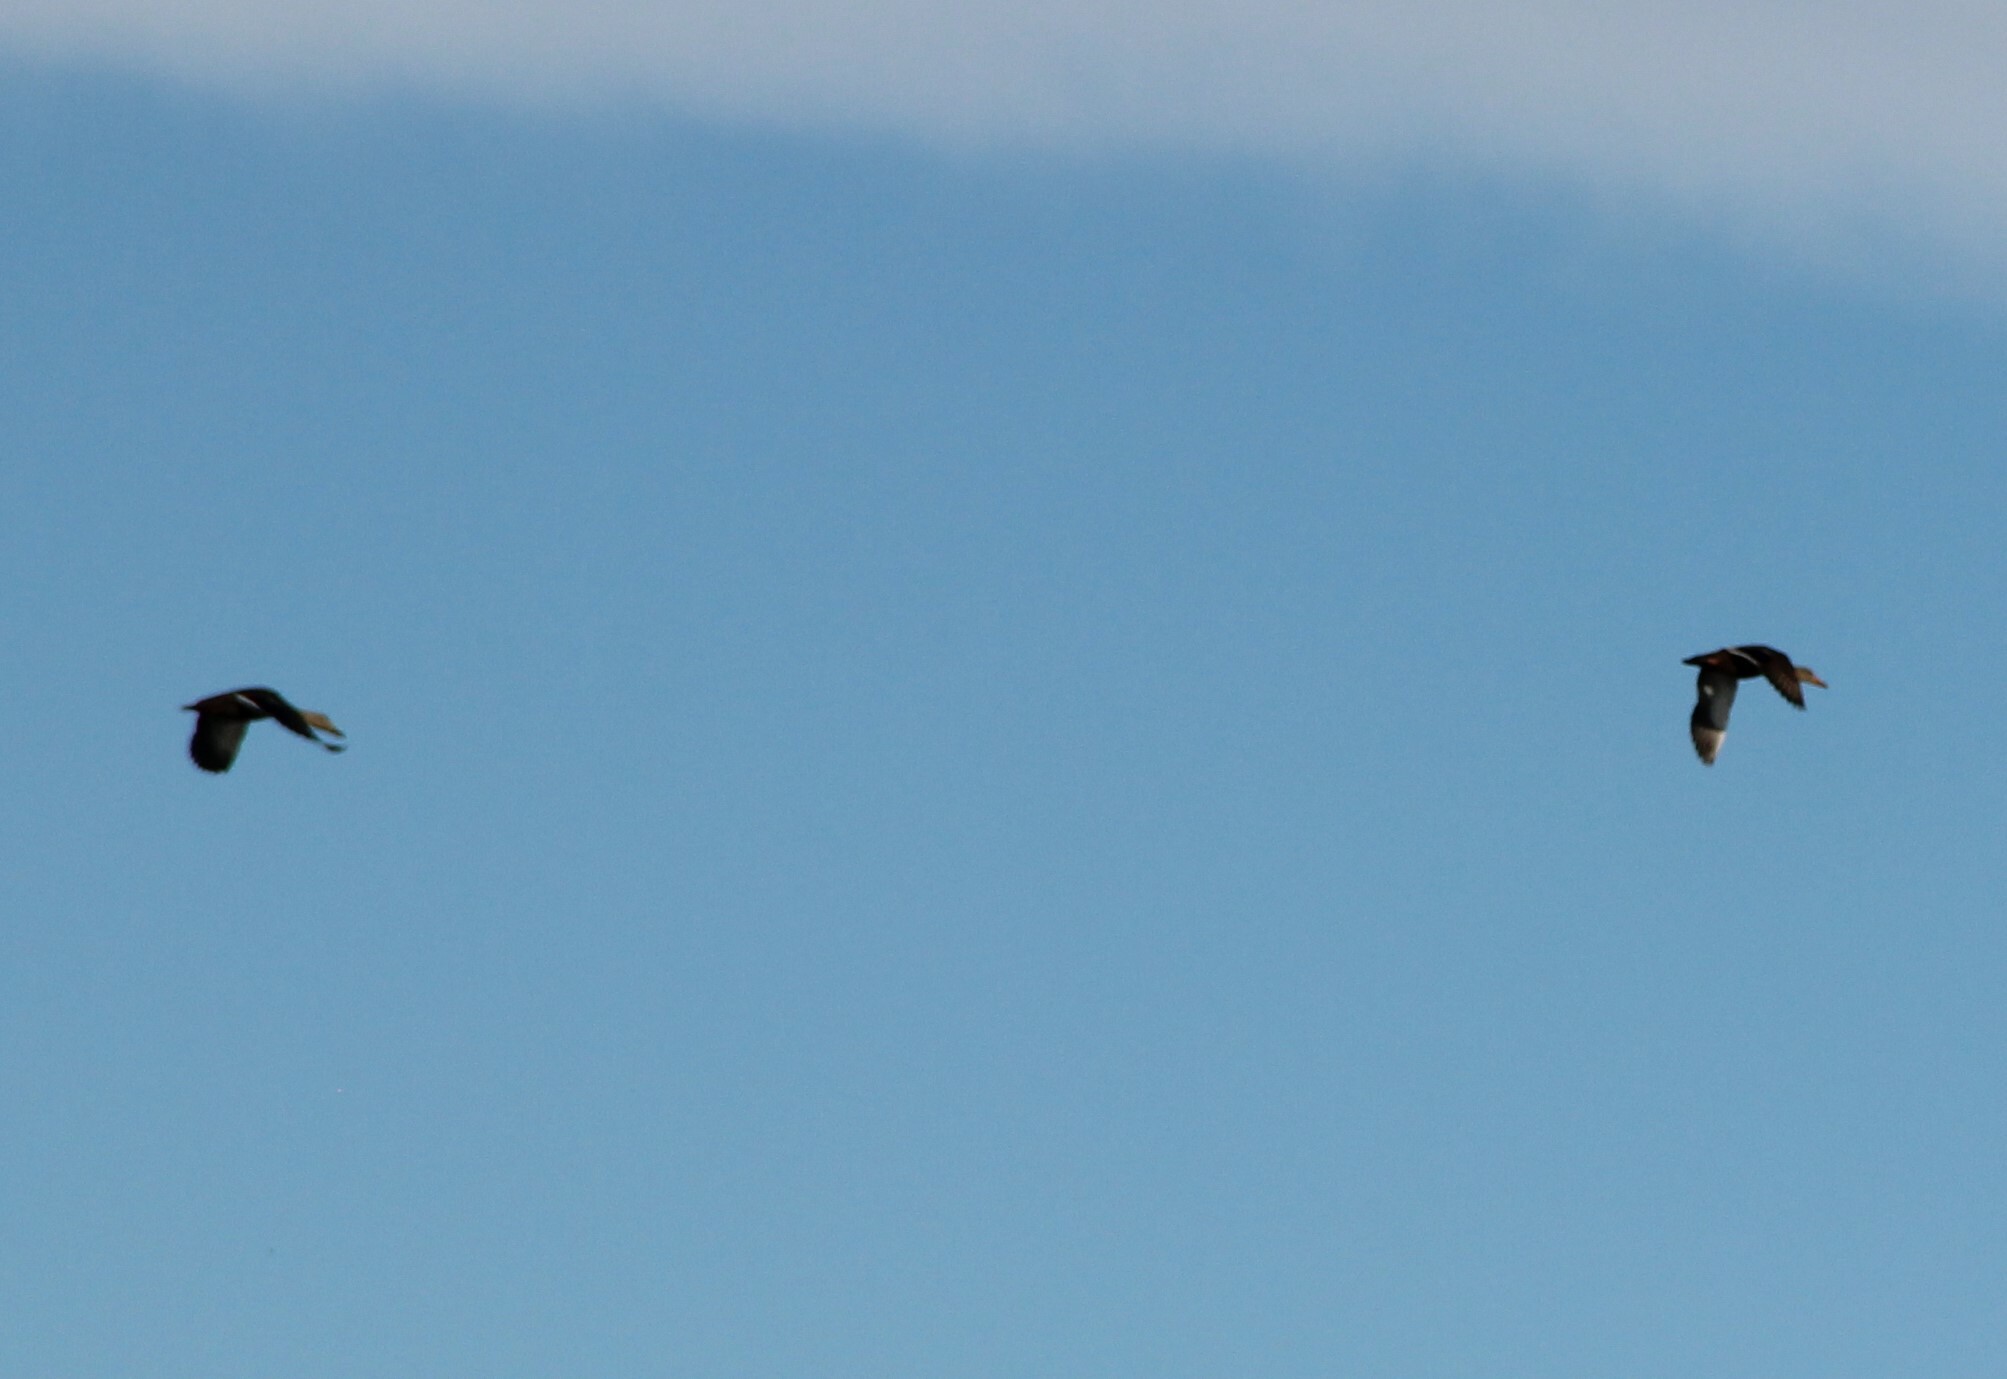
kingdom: Animalia
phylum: Chordata
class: Aves
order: Anseriformes
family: Anatidae
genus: Anas
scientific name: Anas diazi
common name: Mexican duck
